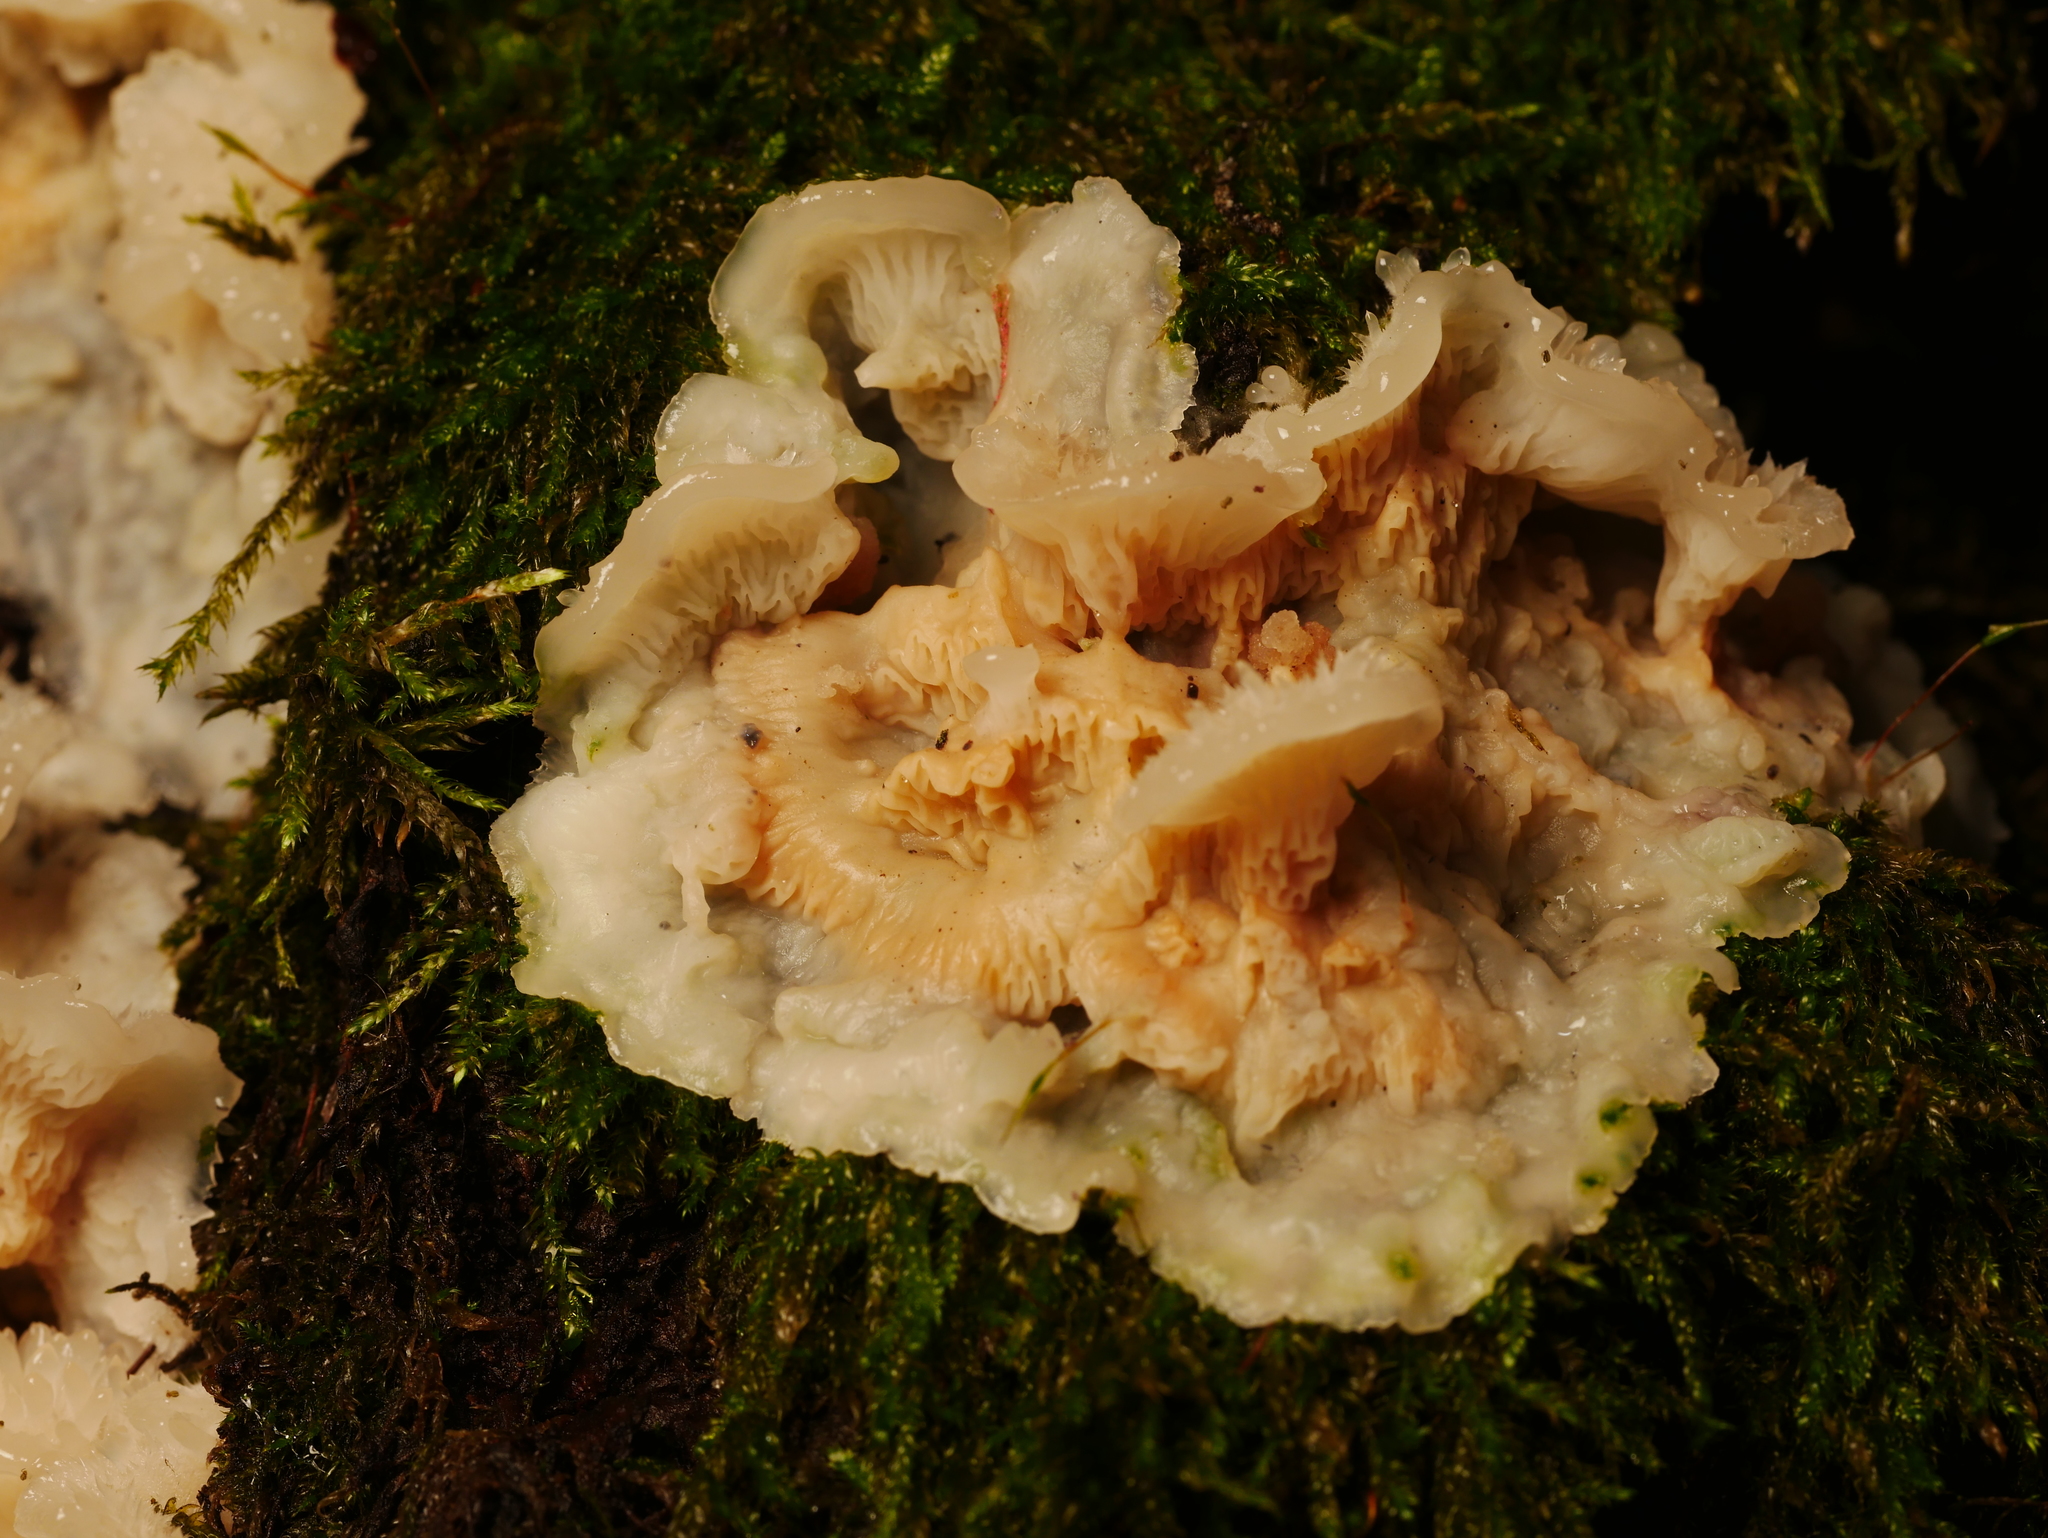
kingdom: Fungi
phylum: Basidiomycota
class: Agaricomycetes
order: Polyporales
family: Meruliaceae
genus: Phlebia
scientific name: Phlebia tremellosa
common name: Jelly rot
